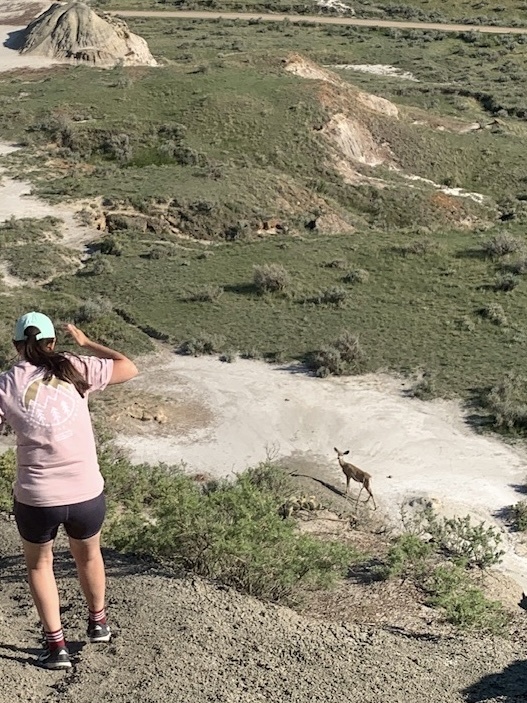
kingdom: Animalia
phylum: Chordata
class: Mammalia
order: Artiodactyla
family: Cervidae
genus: Odocoileus
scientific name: Odocoileus hemionus
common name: Mule deer
